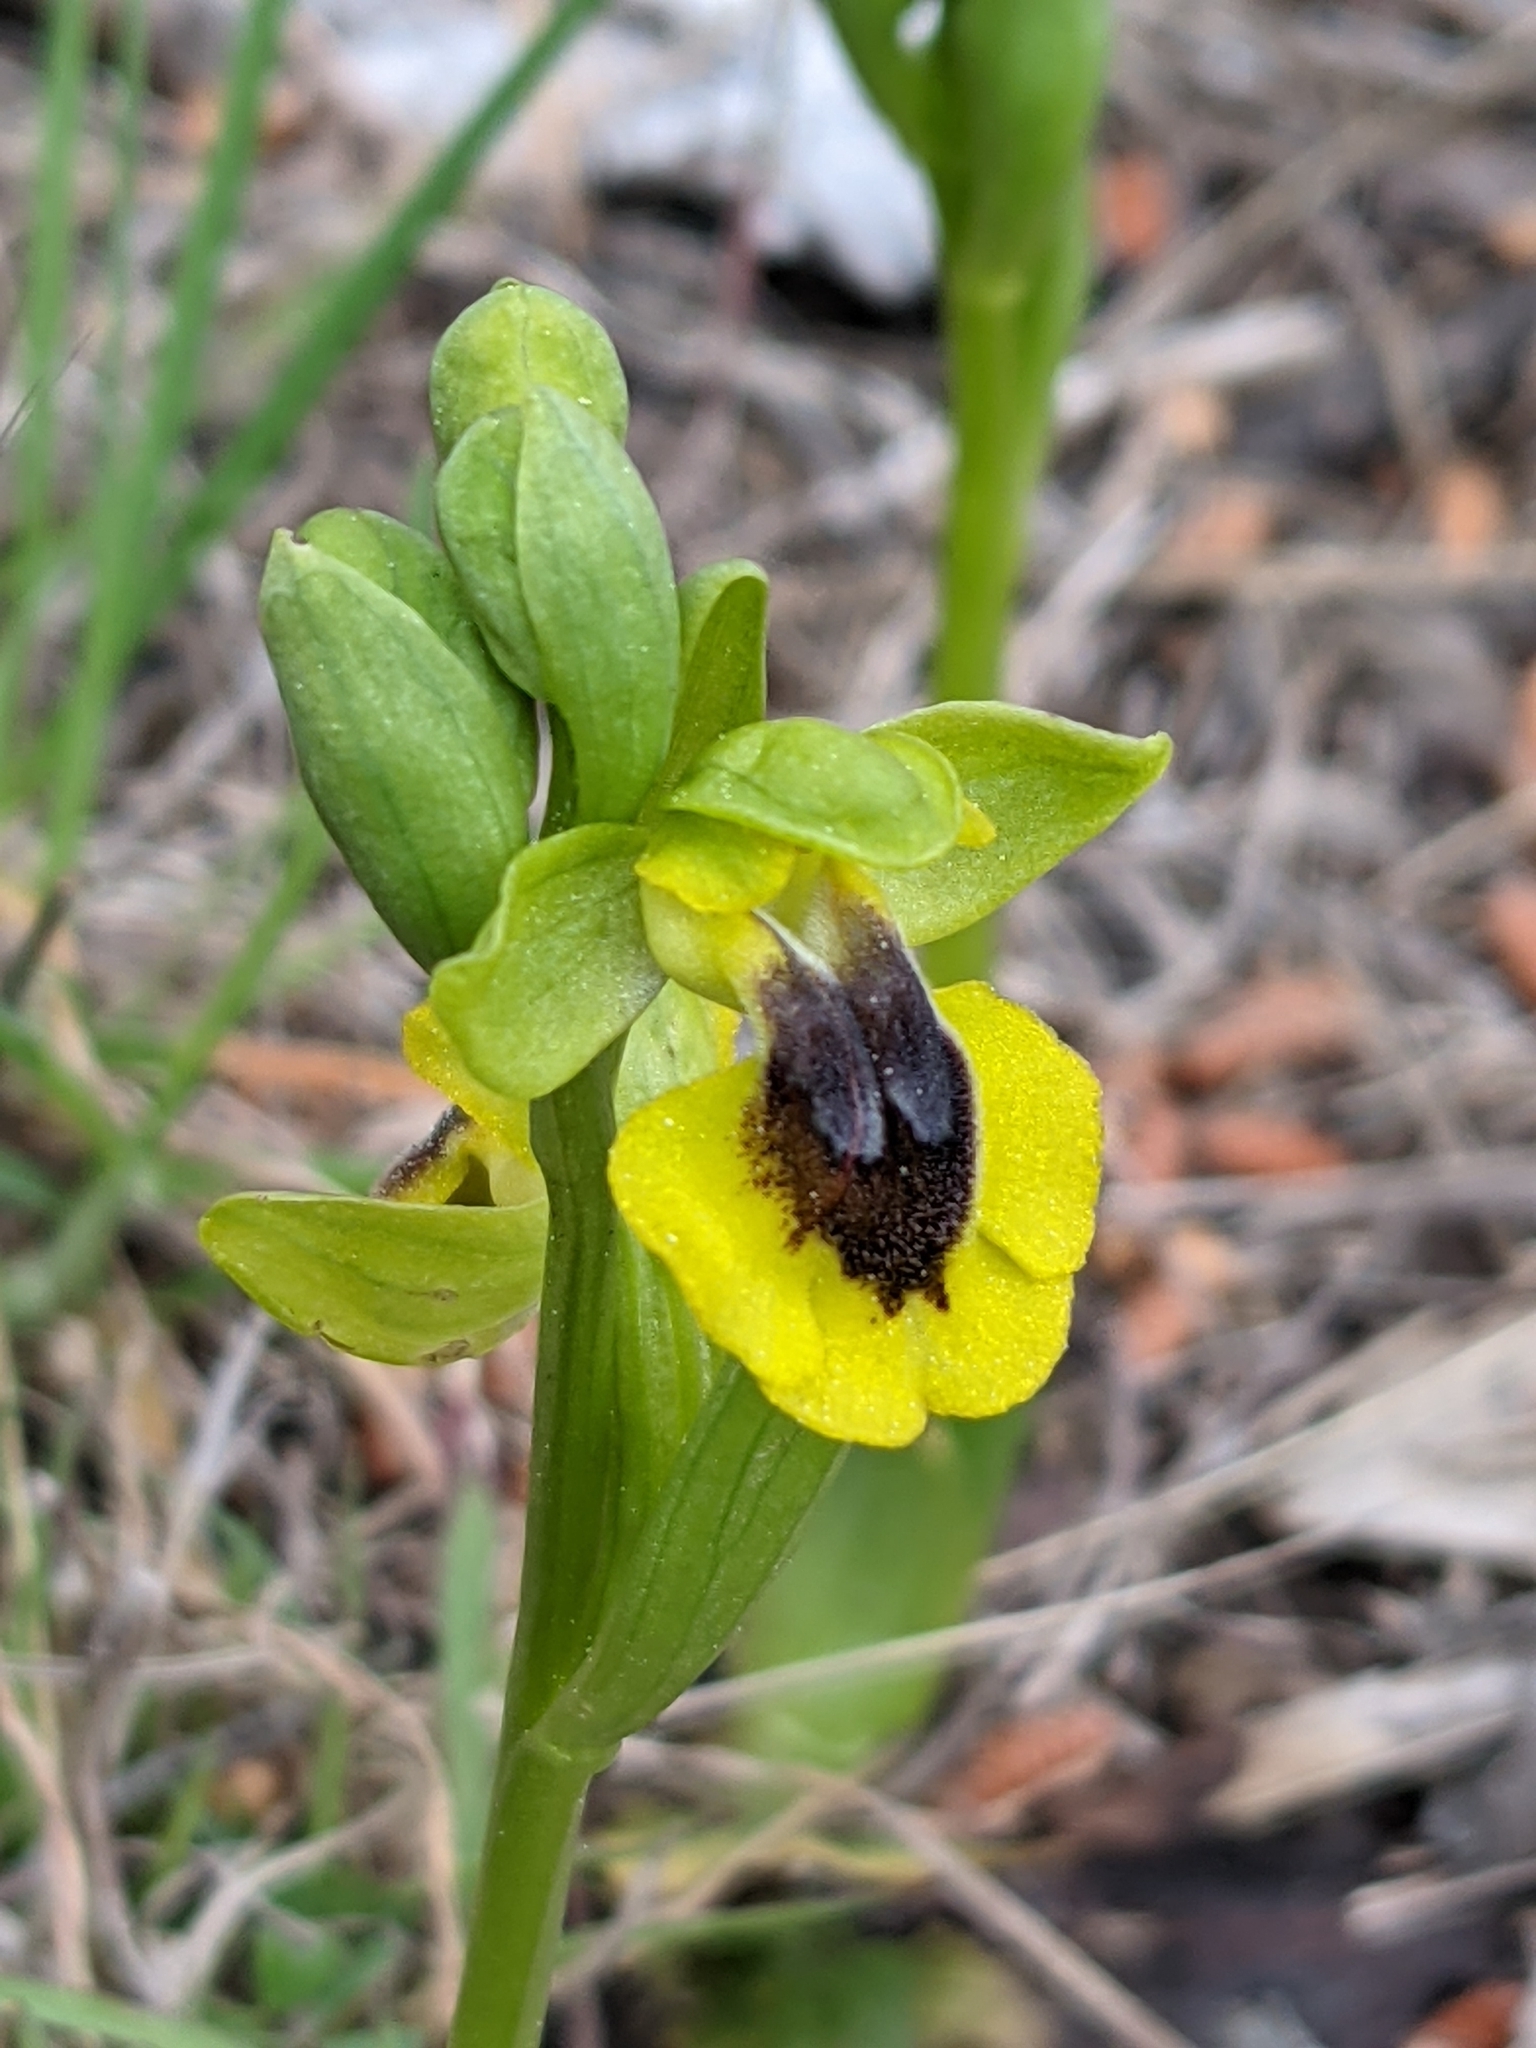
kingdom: Plantae
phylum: Tracheophyta
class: Liliopsida
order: Asparagales
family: Orchidaceae
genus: Ophrys
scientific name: Ophrys lutea
